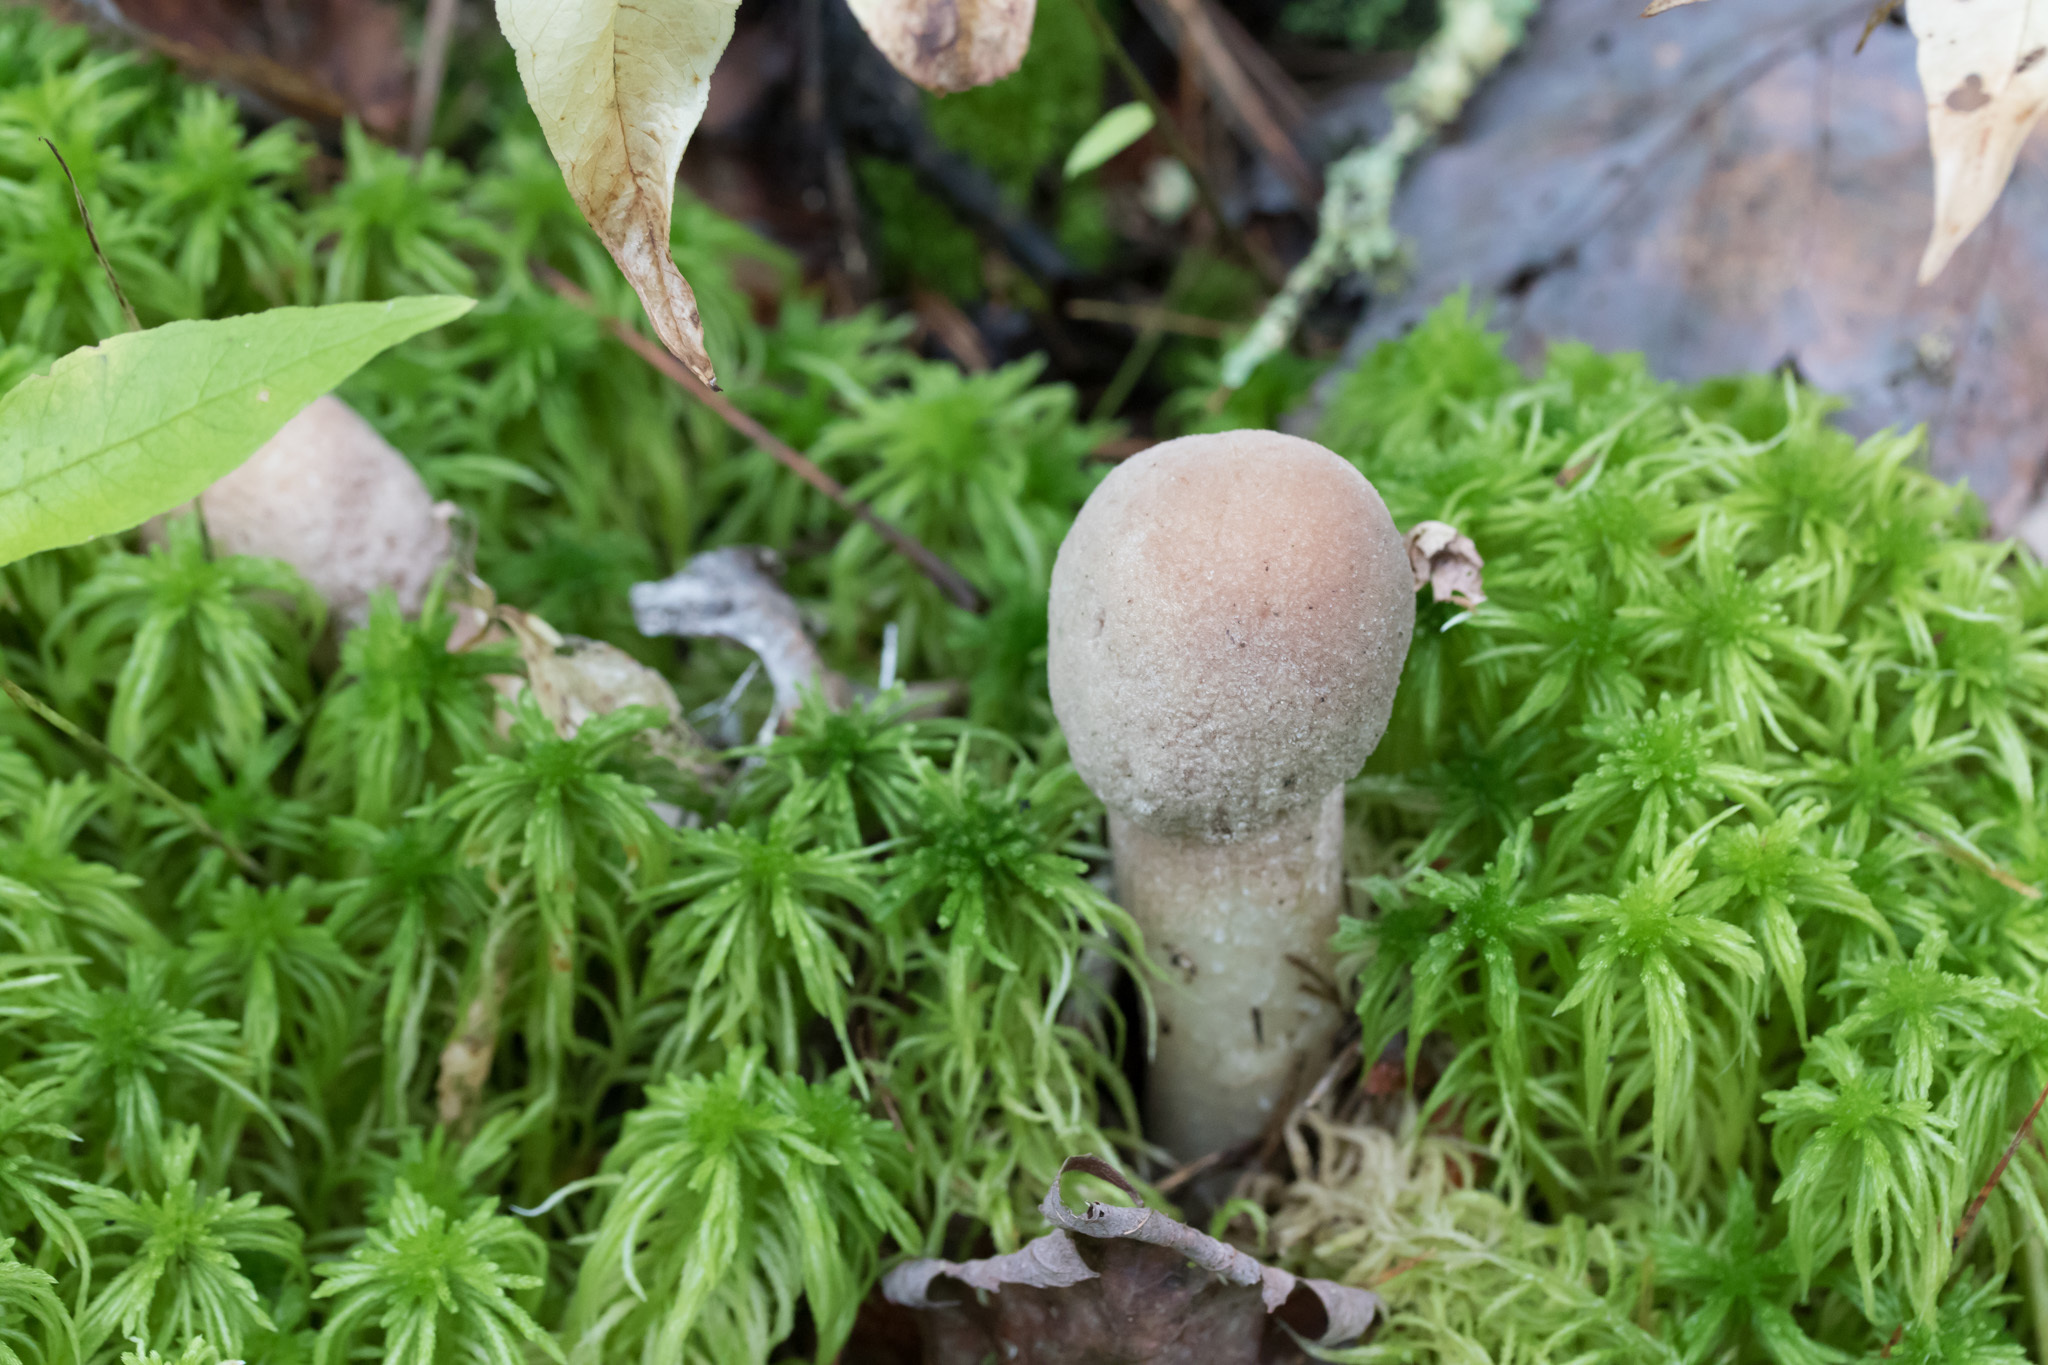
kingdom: Fungi
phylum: Ascomycota
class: Sordariomycetes
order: Hypocreales
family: Hypocreaceae
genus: Hypomyces
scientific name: Hypomyces hyalinus
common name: Amanita mold
